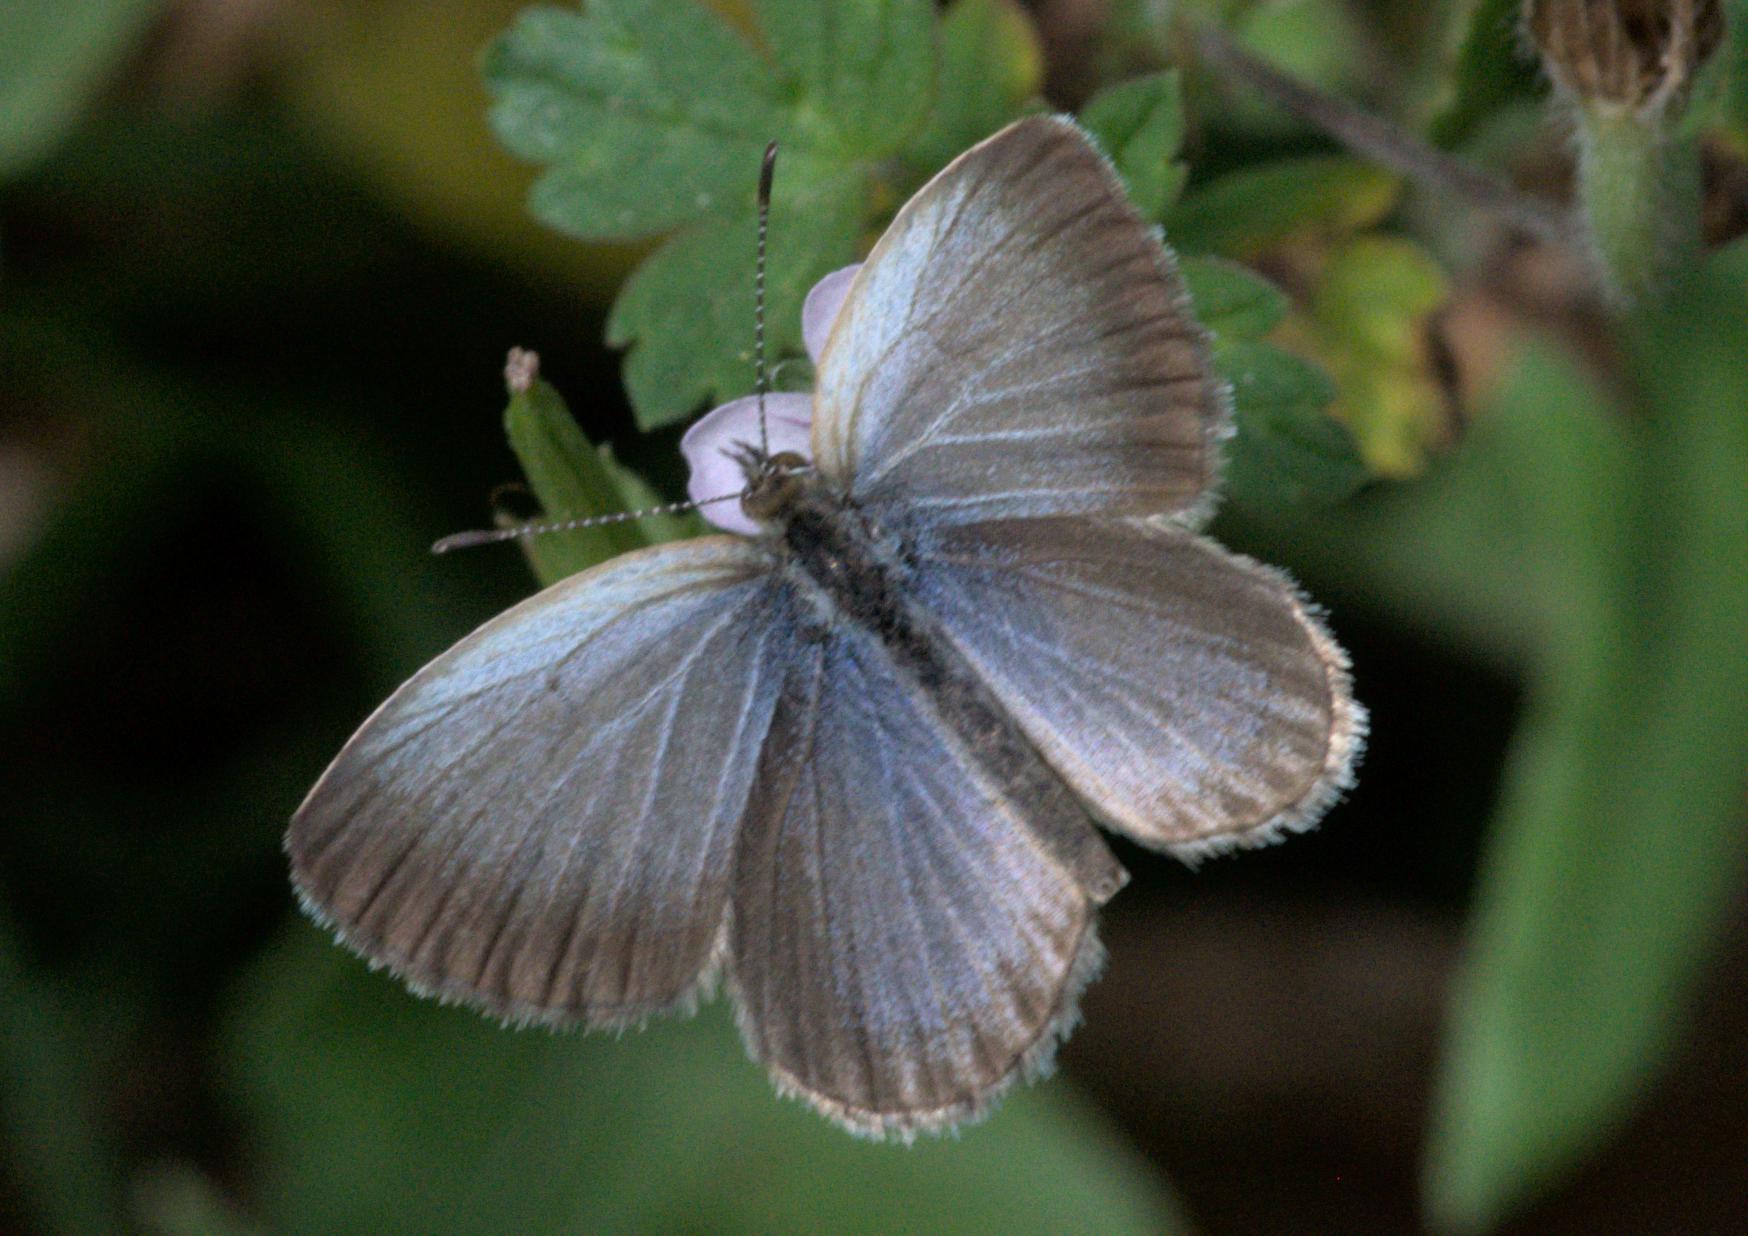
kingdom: Animalia
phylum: Arthropoda
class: Insecta
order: Lepidoptera
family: Lycaenidae
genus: Pseudozizeeria
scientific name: Pseudozizeeria maha
